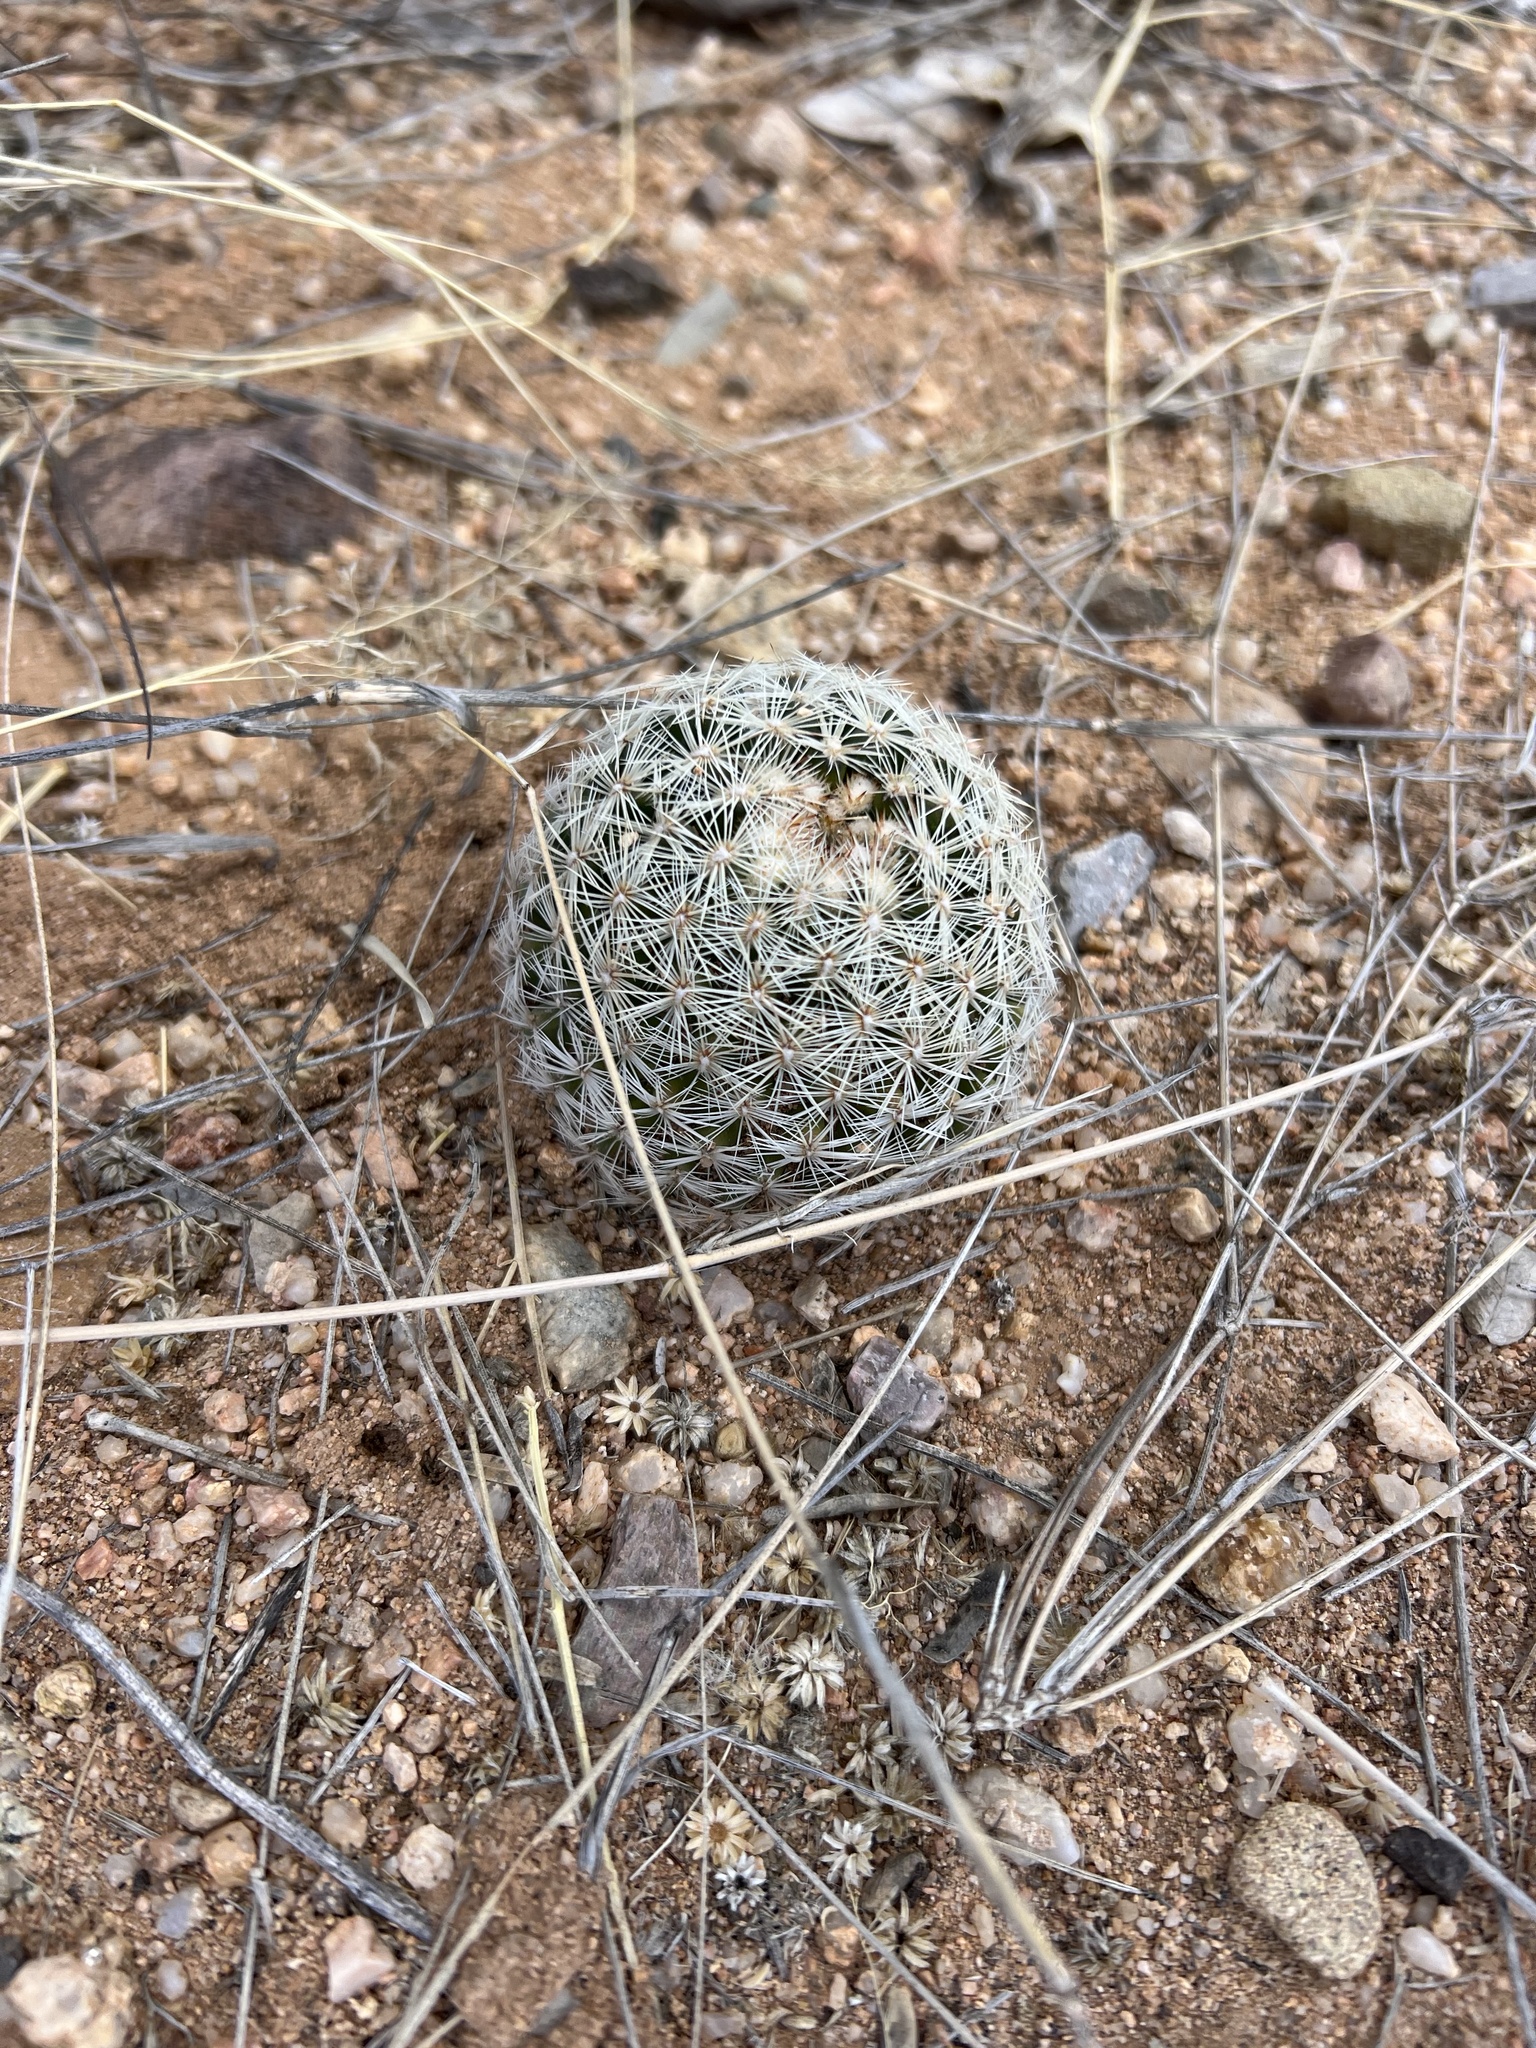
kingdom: Plantae
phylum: Tracheophyta
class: Magnoliopsida
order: Caryophyllales
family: Cactaceae
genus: Pelecyphora
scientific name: Pelecyphora vivipara
